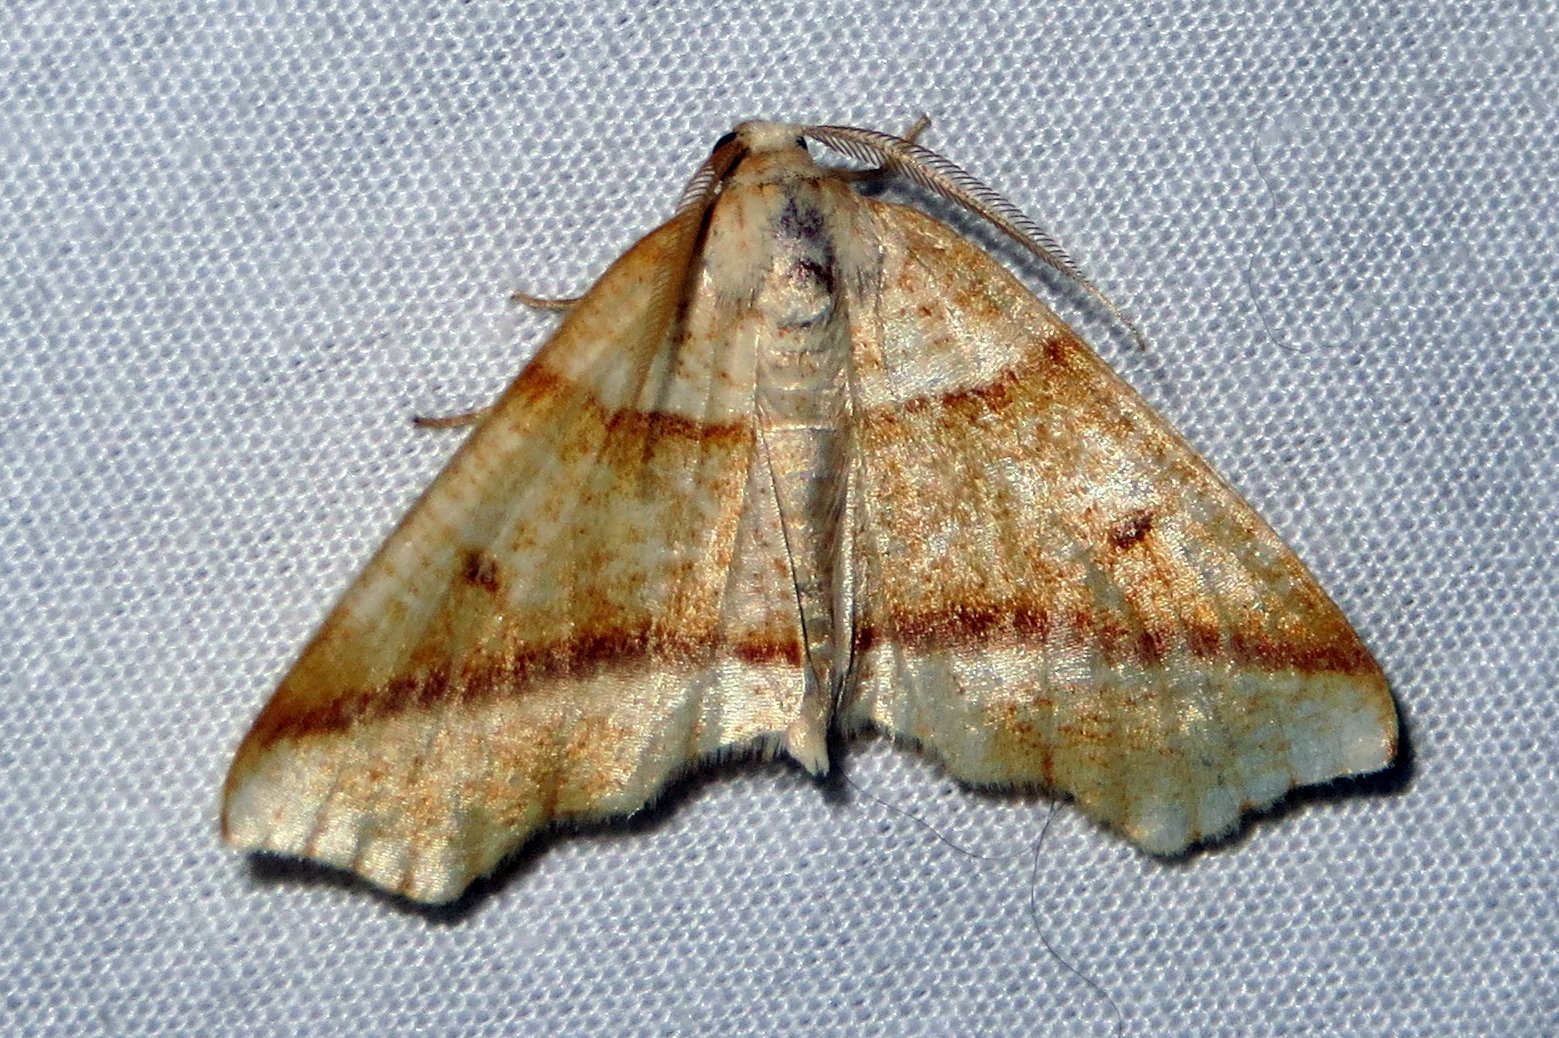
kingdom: Animalia
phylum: Arthropoda
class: Insecta
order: Lepidoptera
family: Geometridae
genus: Plagodis
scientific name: Plagodis alcoolaria
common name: Hollow-spotted plagodis
